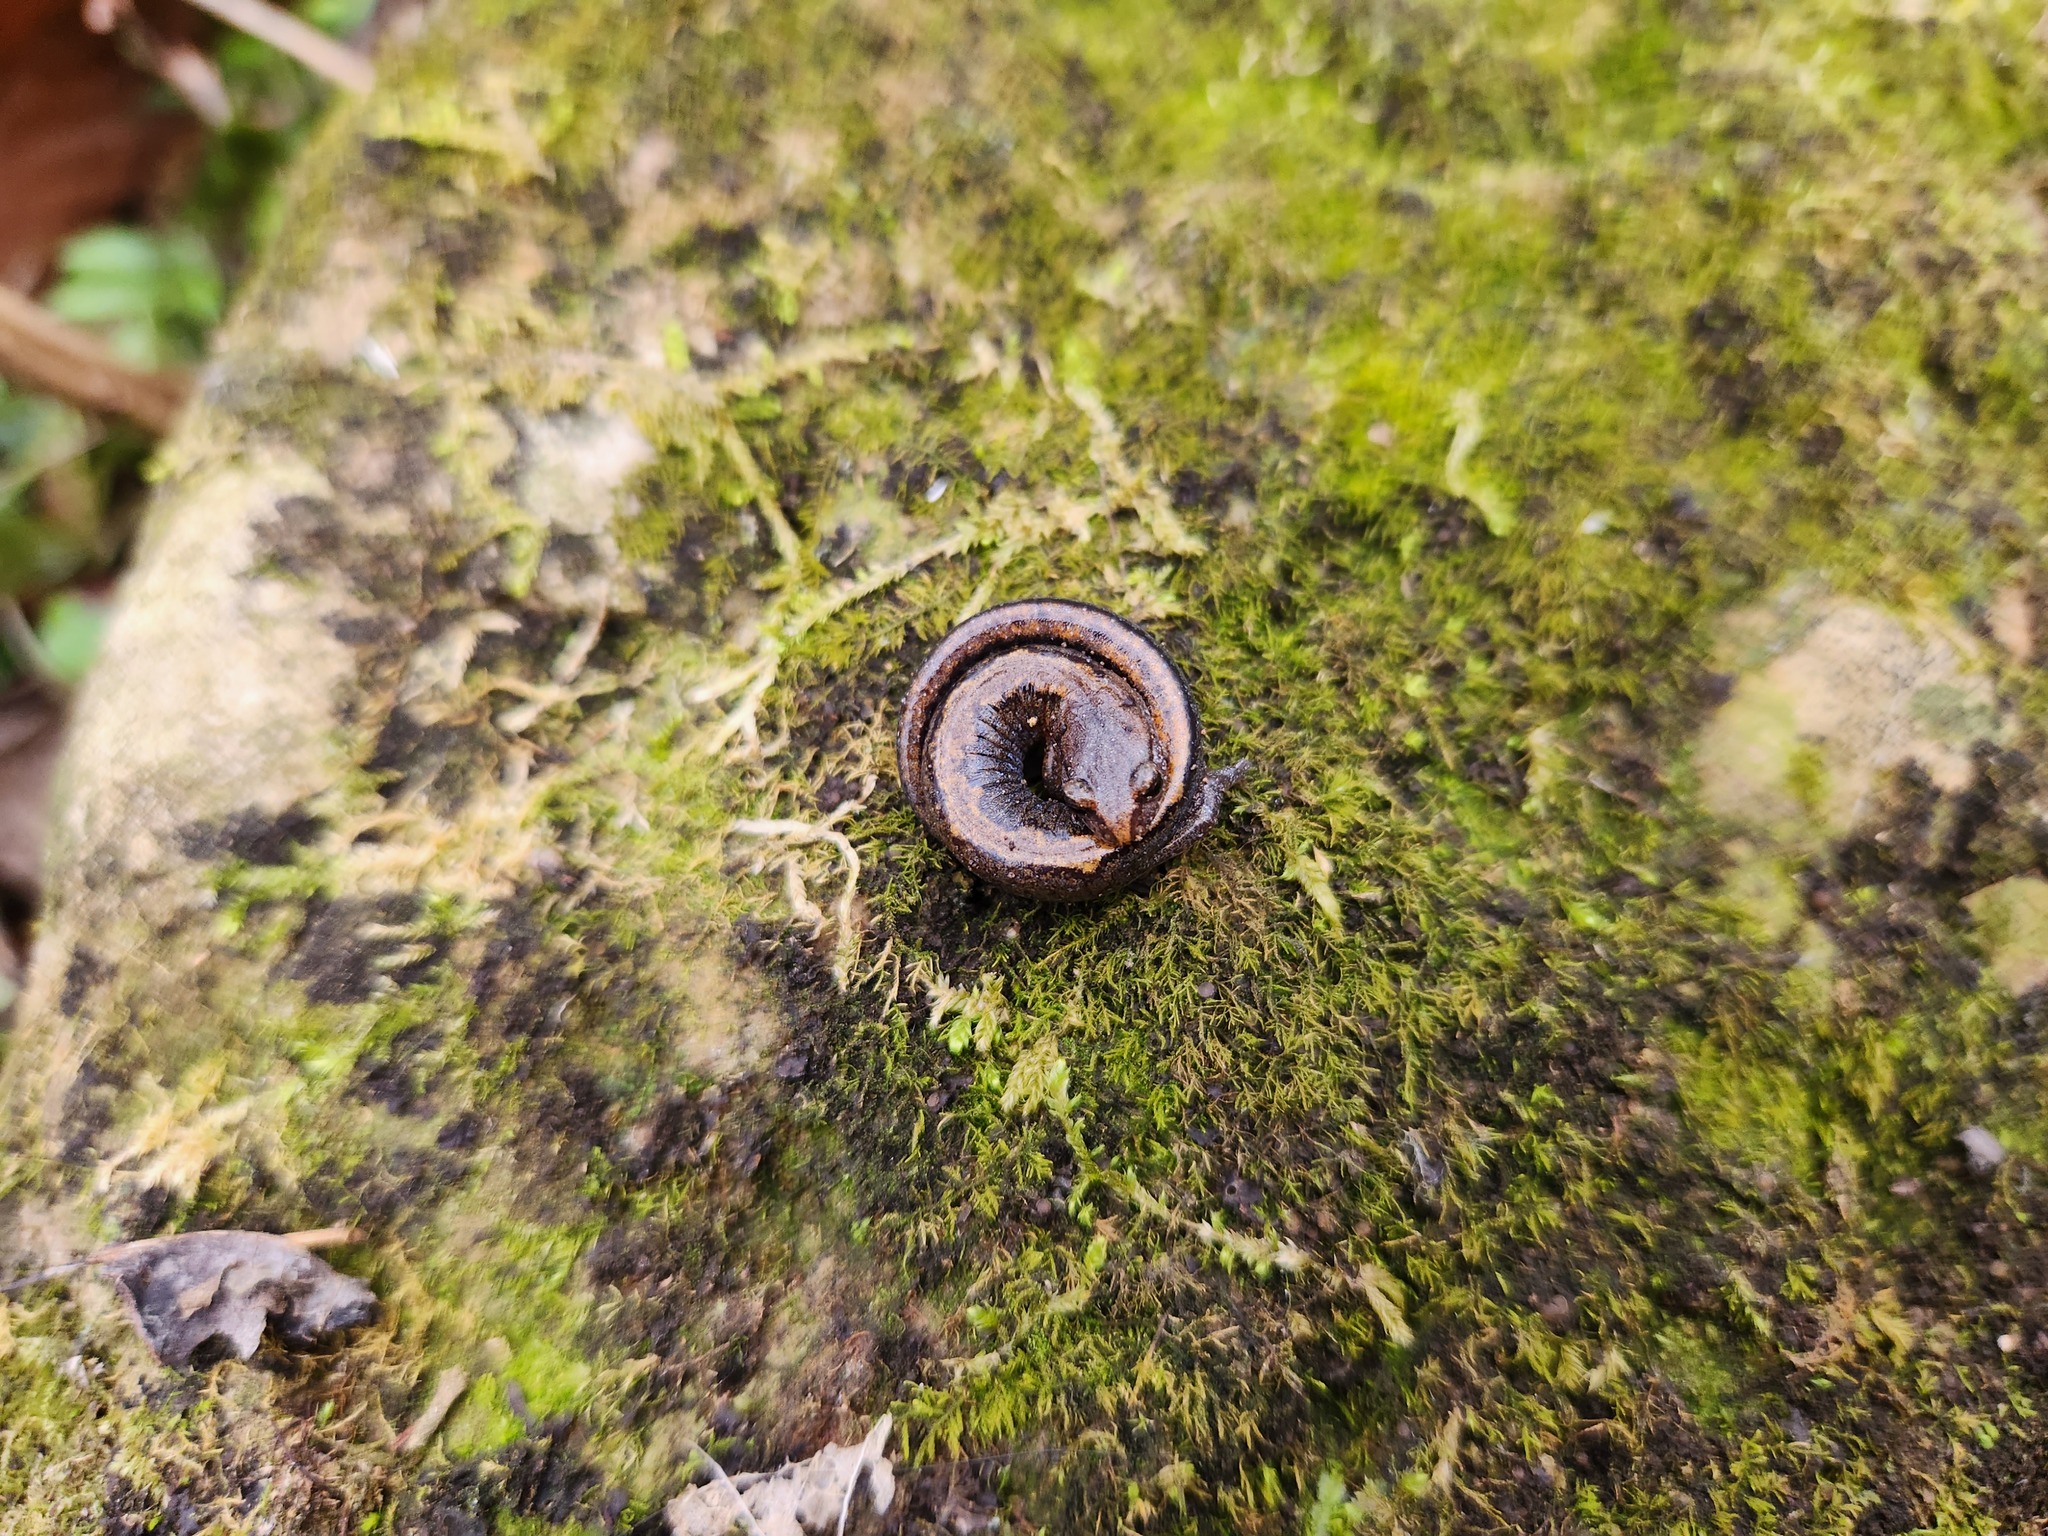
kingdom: Animalia
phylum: Chordata
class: Amphibia
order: Caudata
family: Plethodontidae
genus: Plethodon
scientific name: Plethodon dorsalis
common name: Northern zigzag salamander
